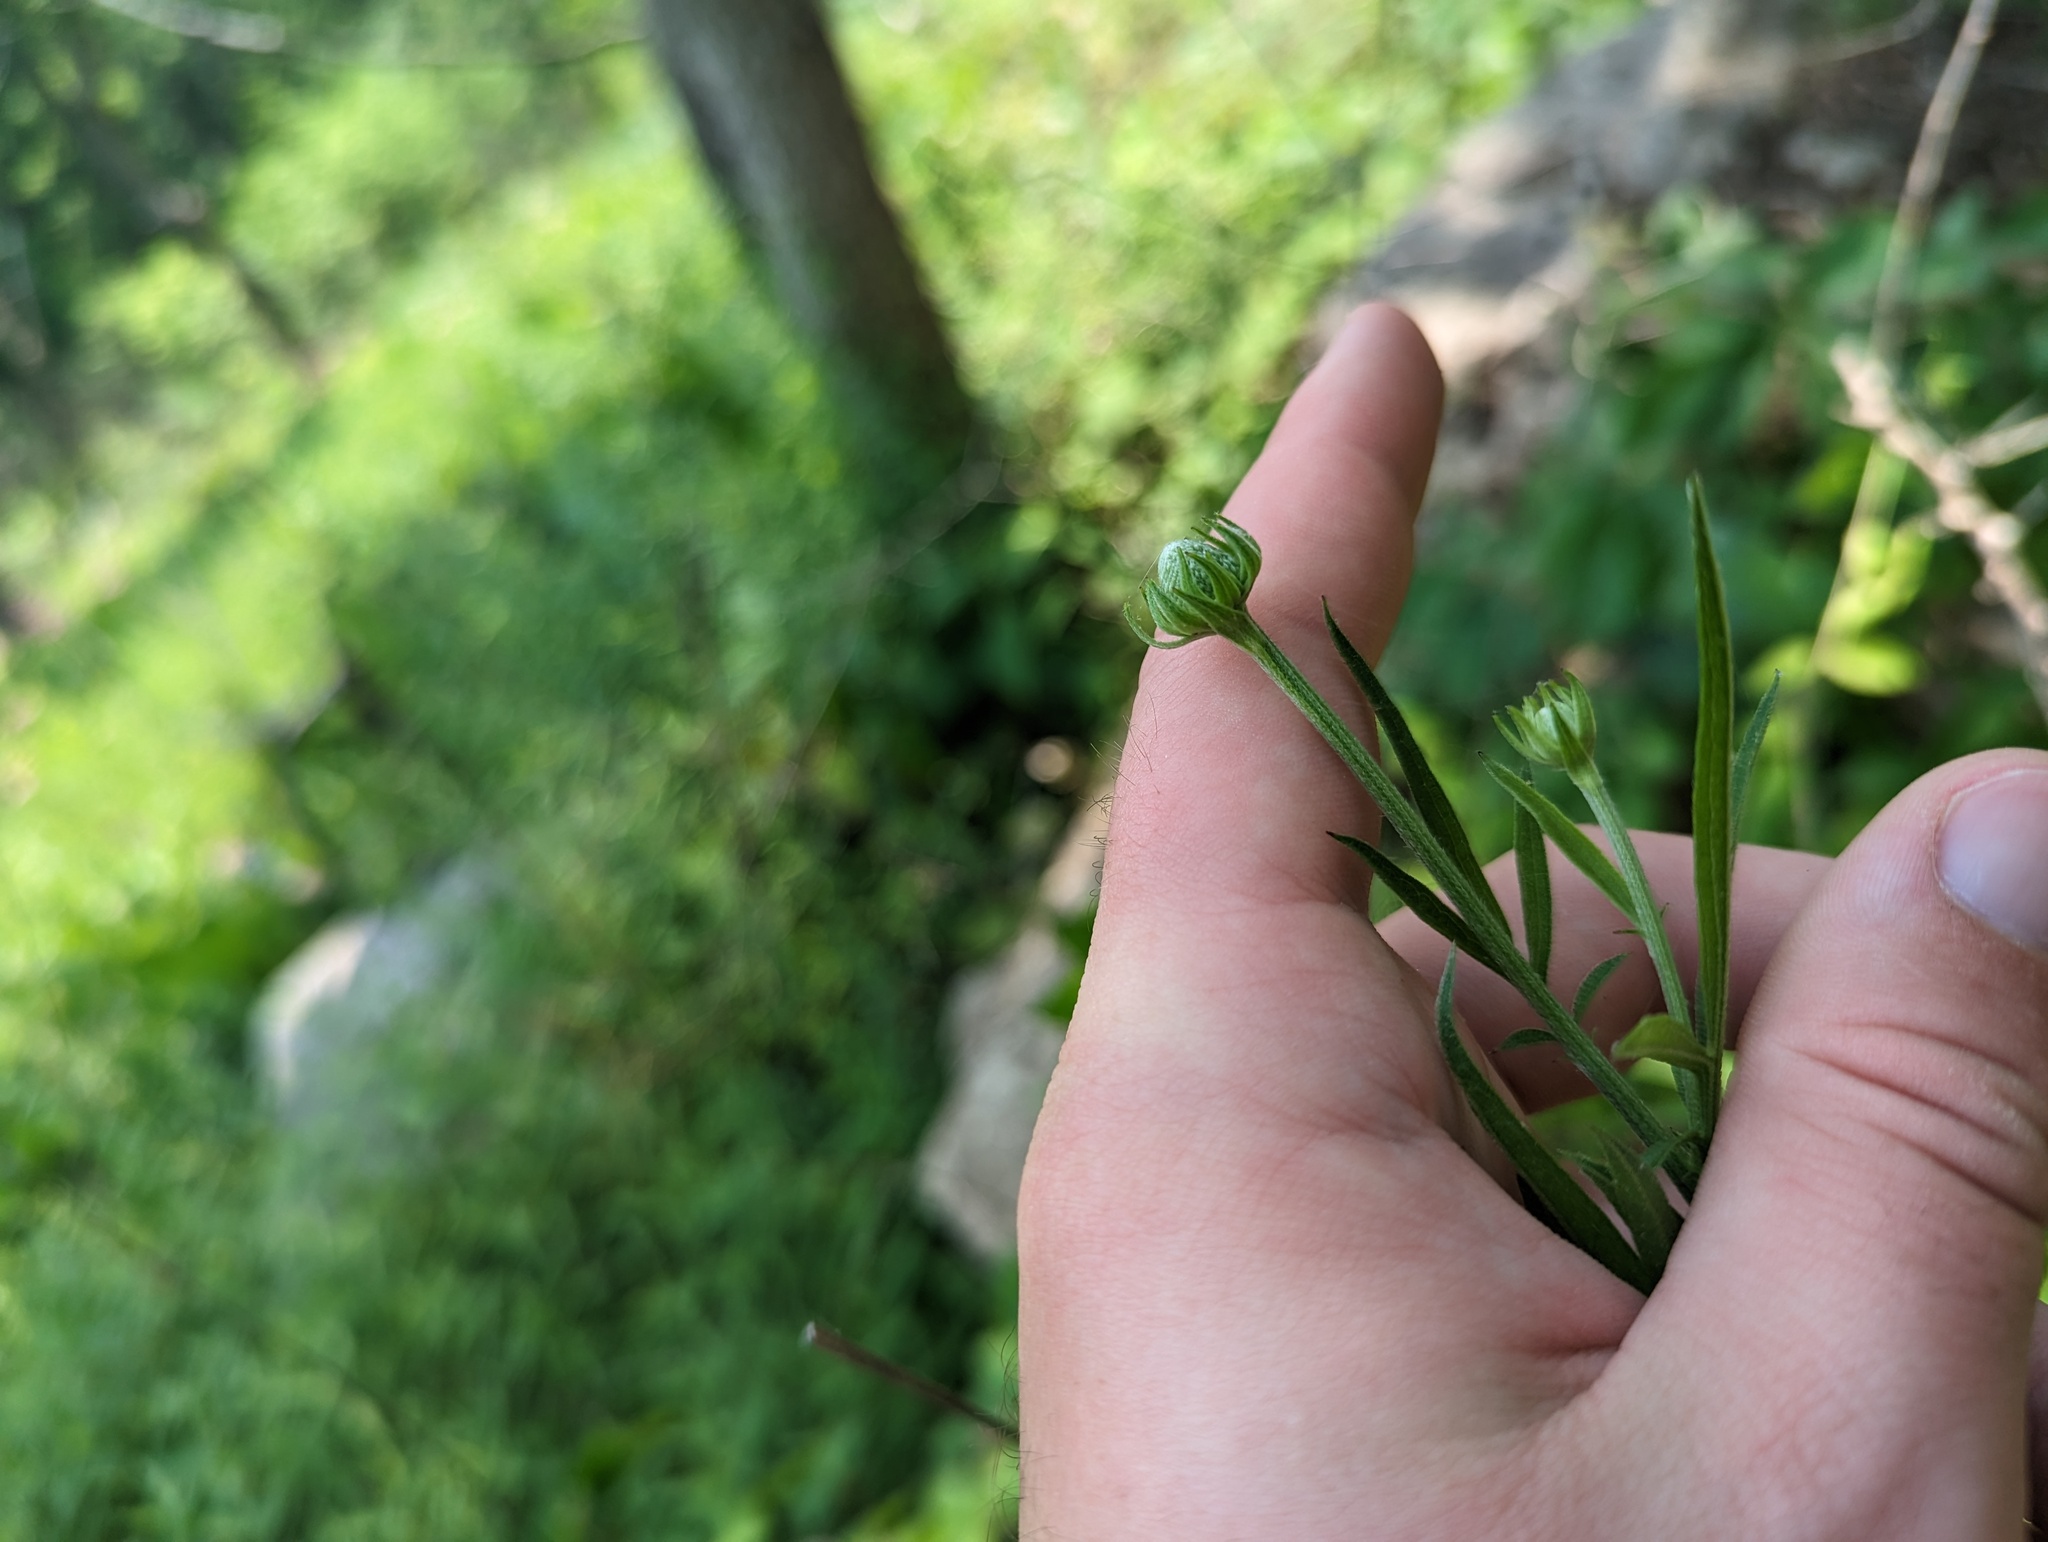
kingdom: Plantae
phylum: Tracheophyta
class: Magnoliopsida
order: Asterales
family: Asteraceae
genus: Ratibida
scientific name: Ratibida pinnata
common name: Drooping prairie-coneflower
